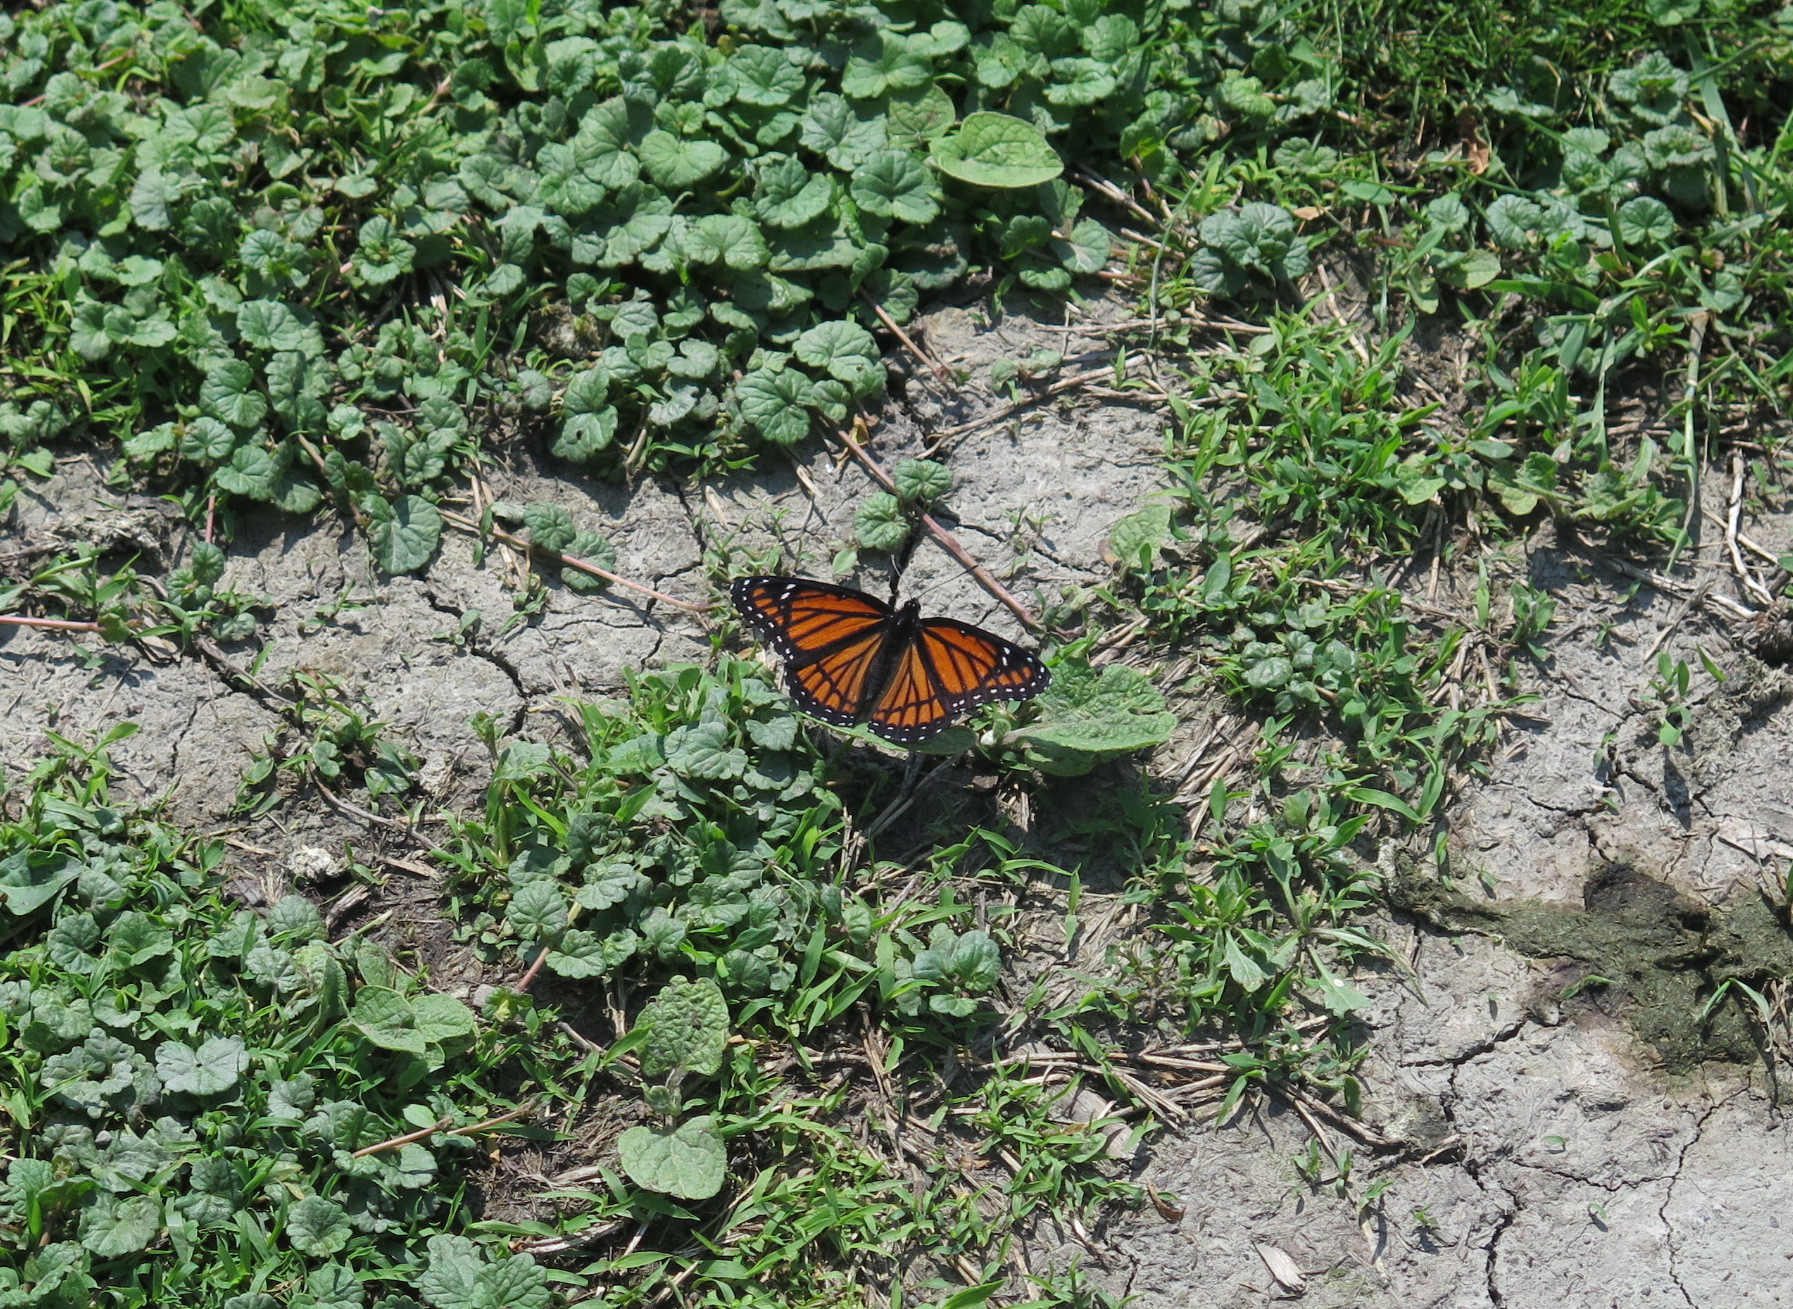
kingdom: Animalia
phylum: Arthropoda
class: Insecta
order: Lepidoptera
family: Nymphalidae
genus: Limenitis
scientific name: Limenitis archippus
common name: Viceroy
